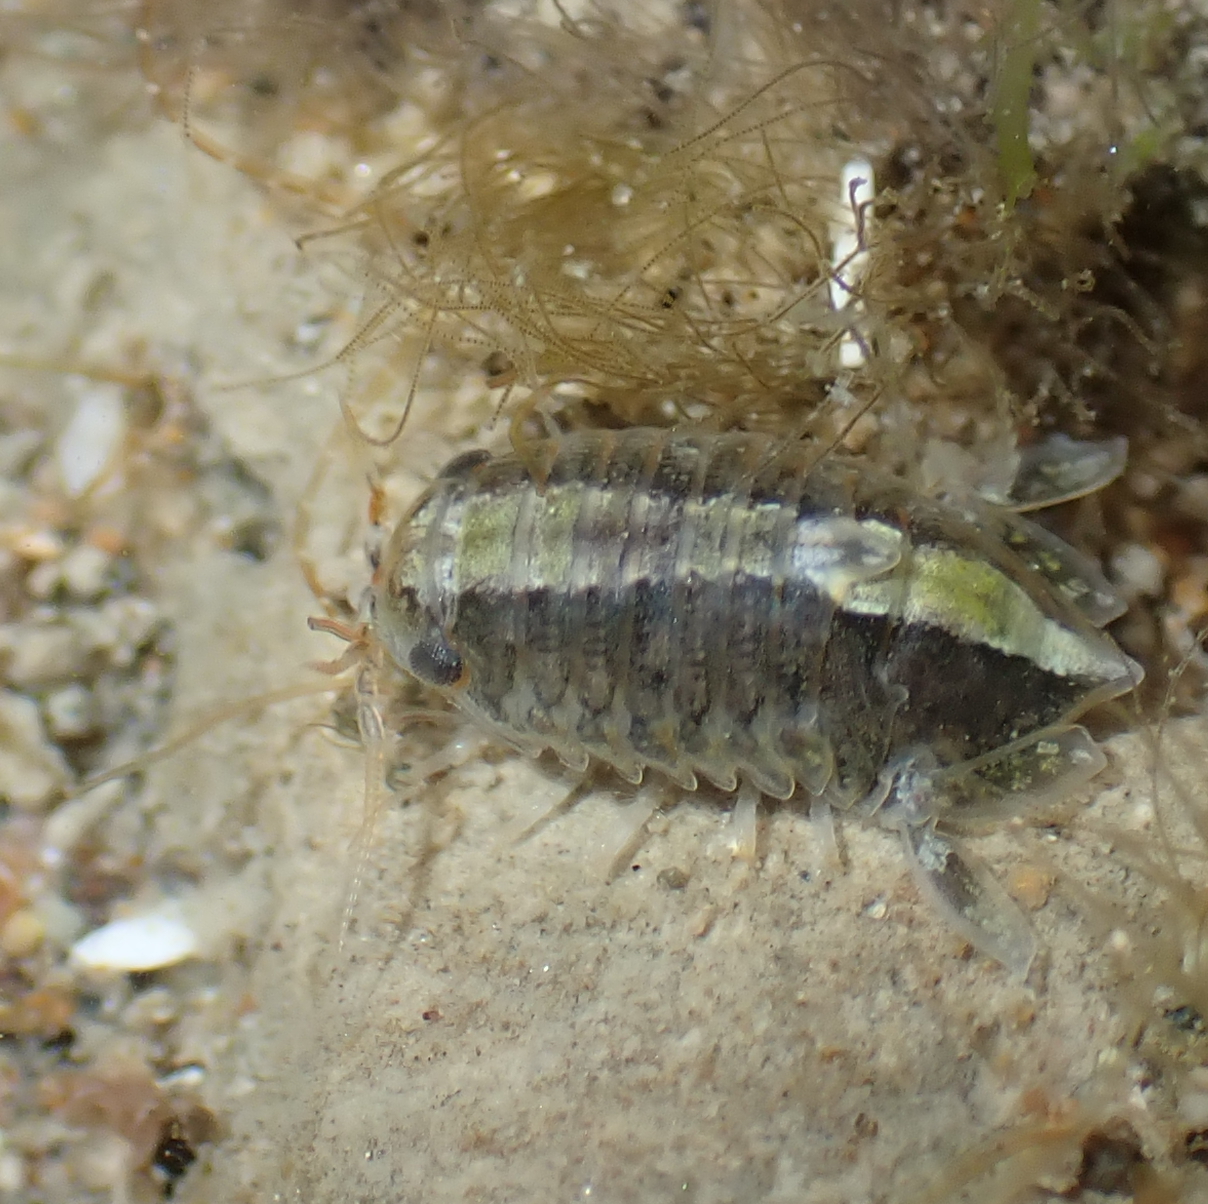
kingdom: Animalia
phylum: Arthropoda
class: Malacostraca
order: Isopoda
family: Sphaeromatidae
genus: Isocladus
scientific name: Isocladus armatus
